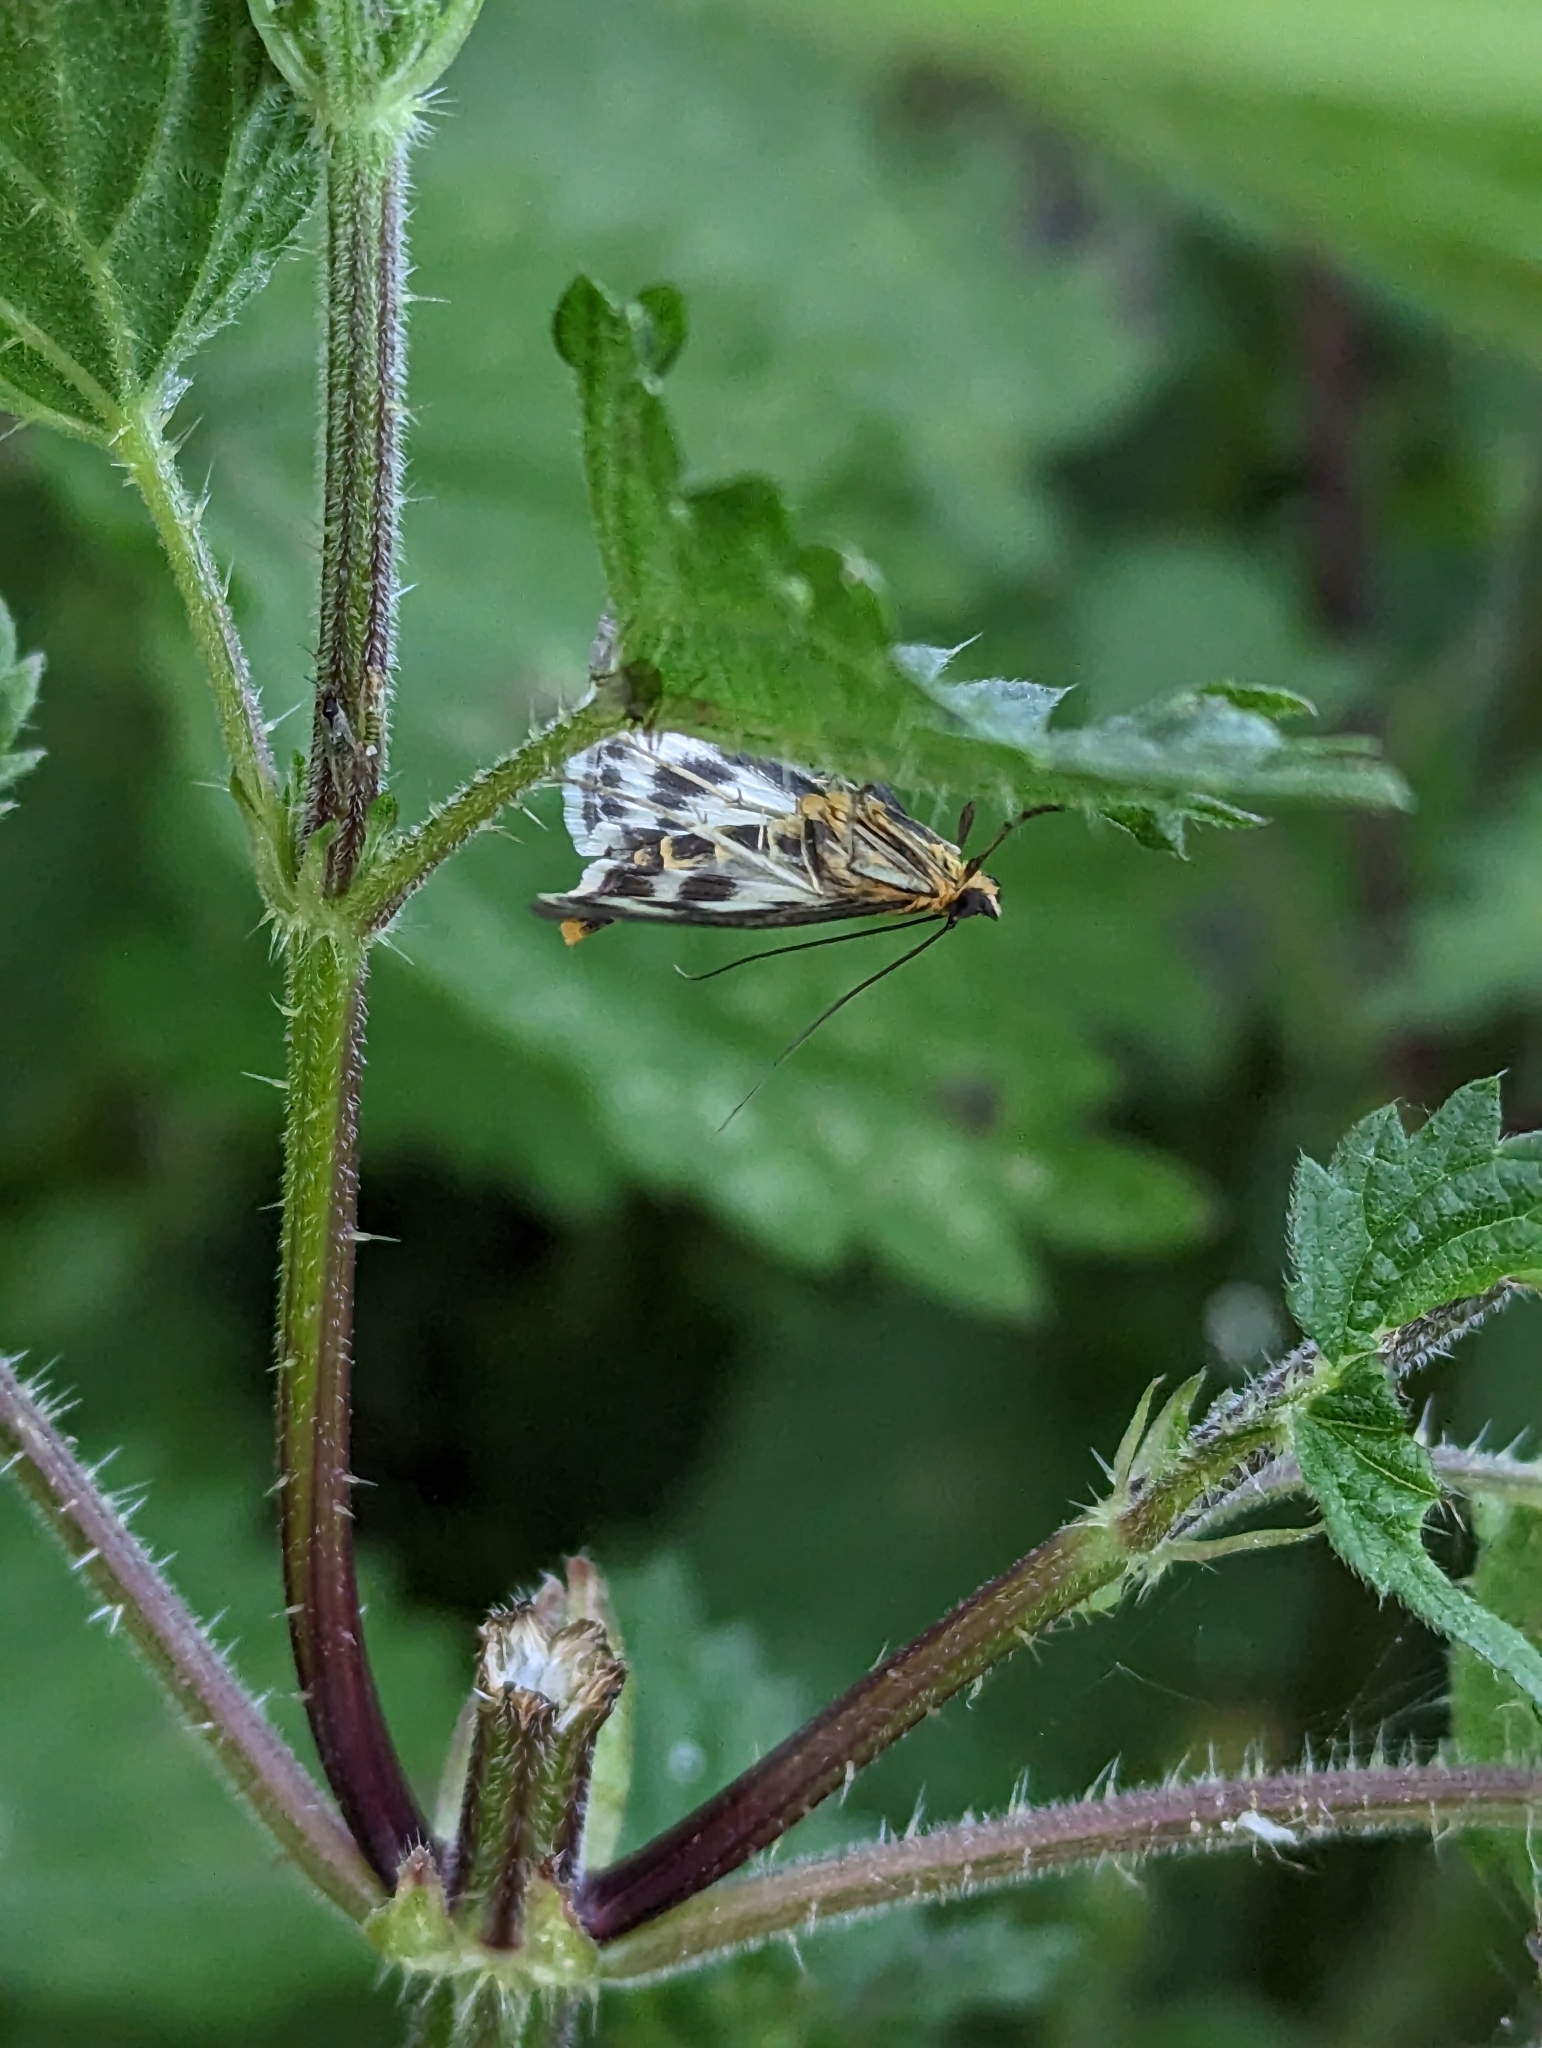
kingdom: Animalia
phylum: Arthropoda
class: Insecta
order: Lepidoptera
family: Crambidae
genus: Anania
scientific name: Anania hortulata
